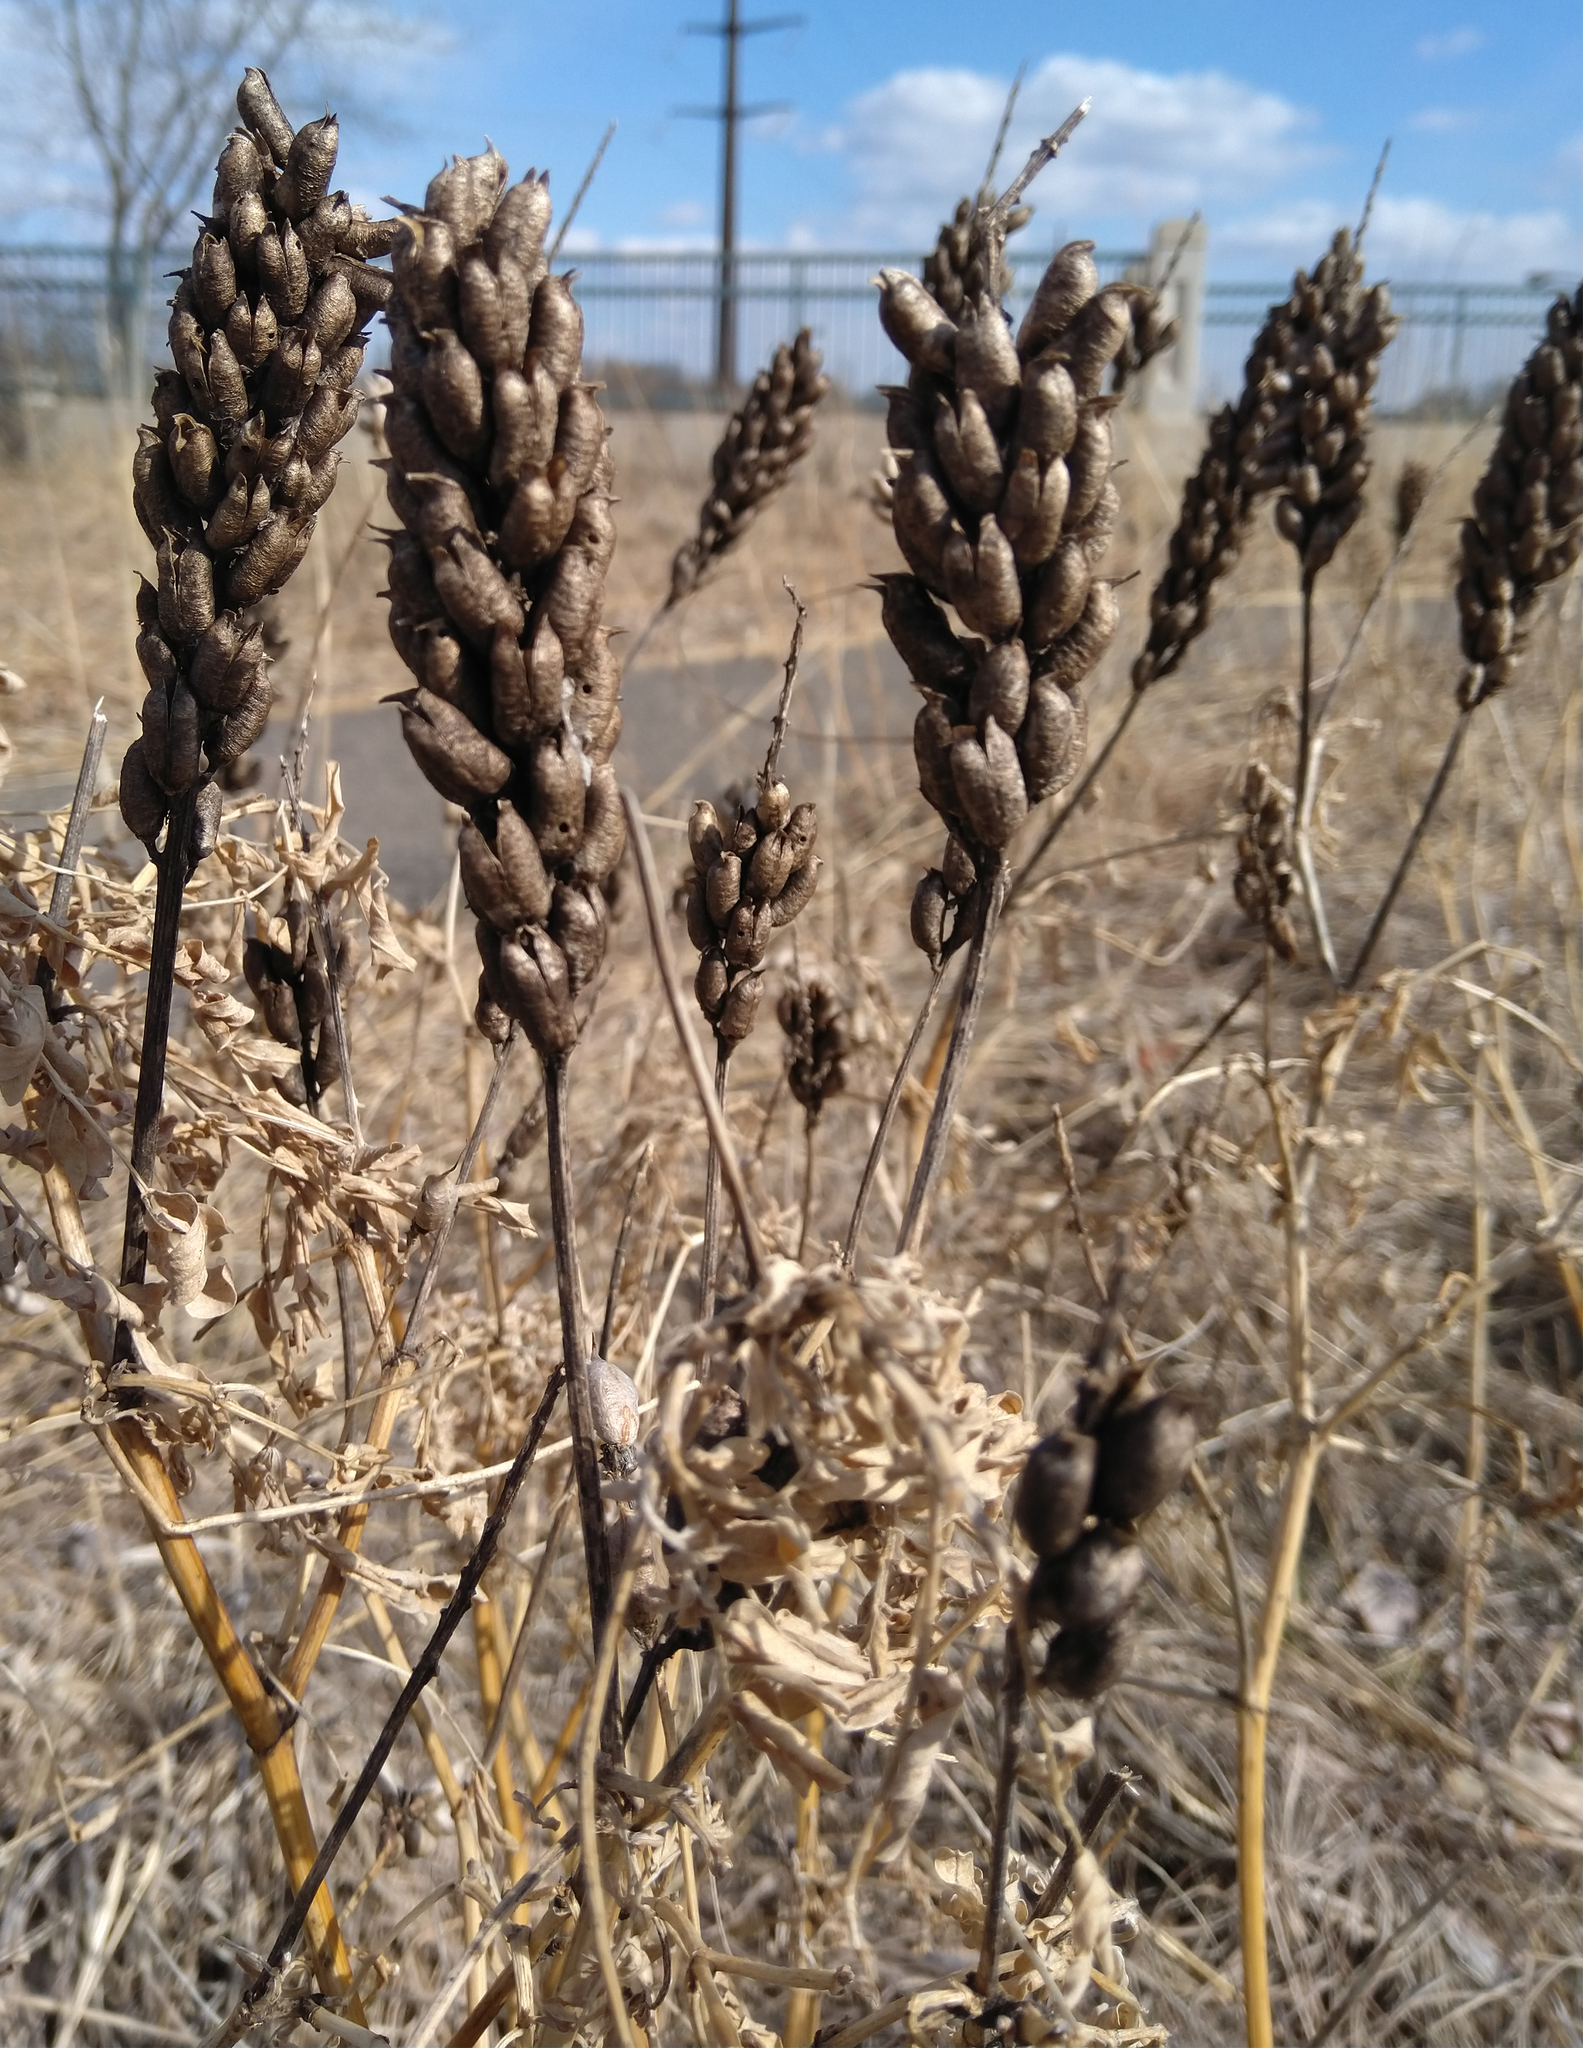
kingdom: Plantae
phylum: Tracheophyta
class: Magnoliopsida
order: Fabales
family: Fabaceae
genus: Astragalus
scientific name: Astragalus canadensis
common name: Canada milk-vetch
